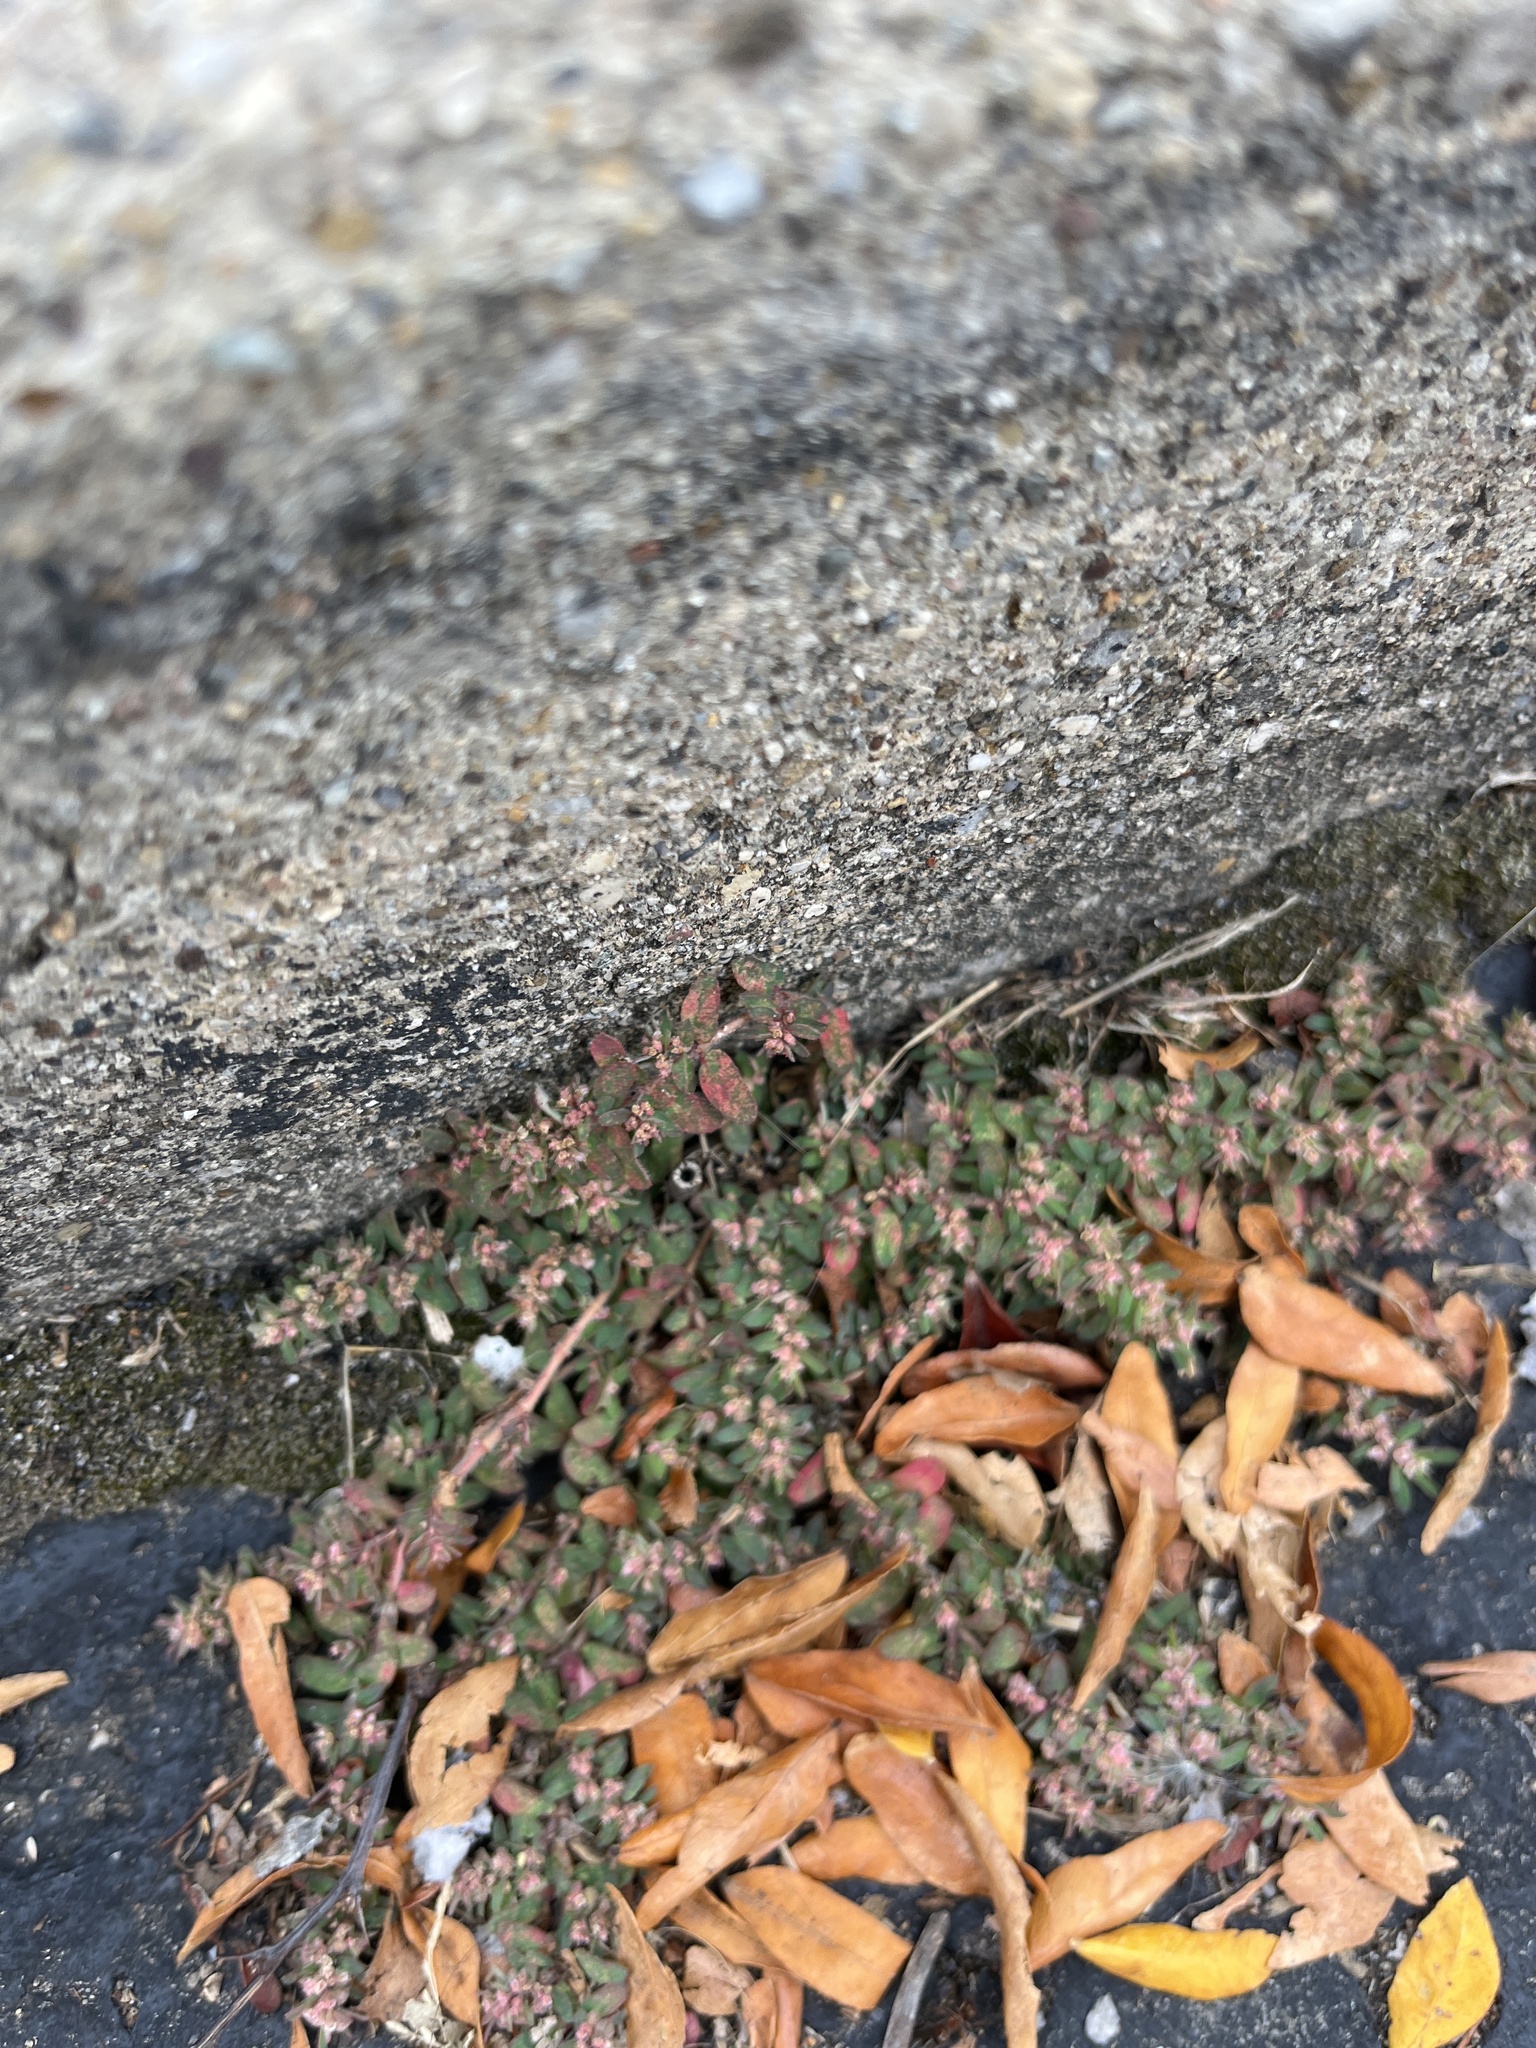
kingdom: Plantae
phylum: Tracheophyta
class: Magnoliopsida
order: Malpighiales
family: Euphorbiaceae
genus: Euphorbia
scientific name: Euphorbia maculata
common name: Spotted spurge
